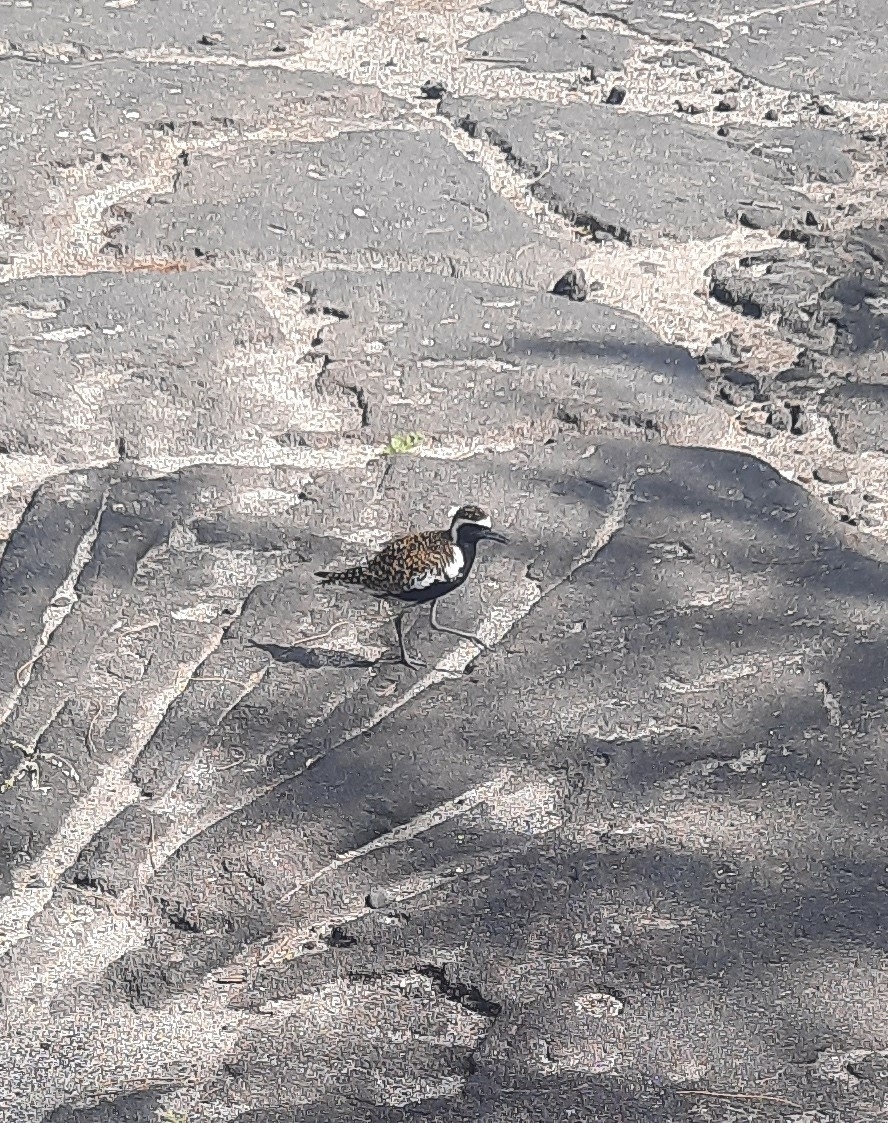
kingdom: Animalia
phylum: Chordata
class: Aves
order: Charadriiformes
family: Charadriidae
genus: Pluvialis
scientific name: Pluvialis fulva
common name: Pacific golden plover
